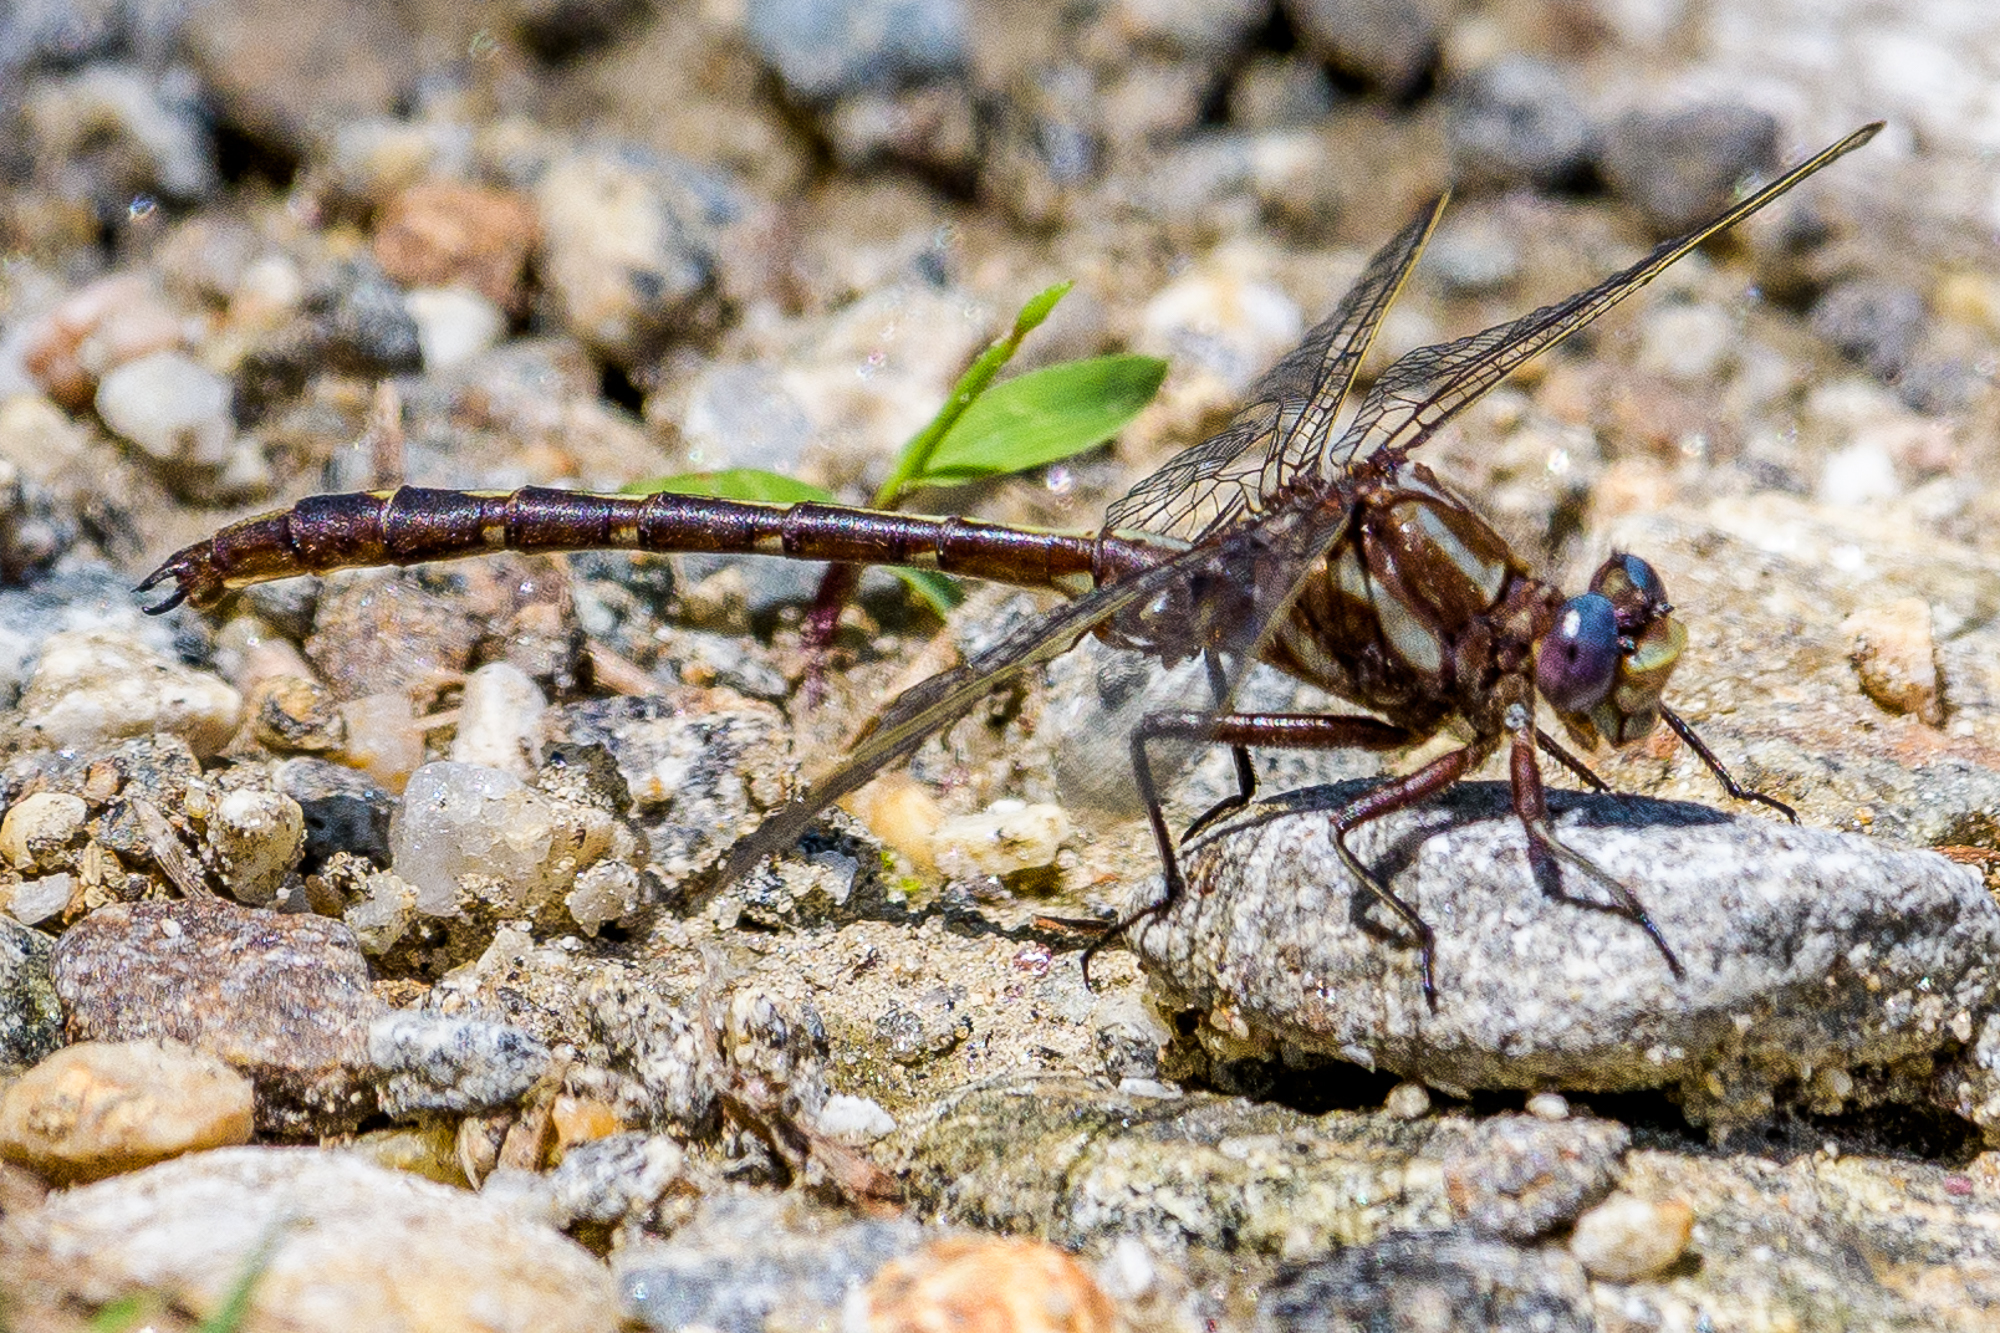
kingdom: Animalia
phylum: Arthropoda
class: Insecta
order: Odonata
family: Gomphidae
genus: Phanogomphus
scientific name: Phanogomphus lividus
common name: Ashy clubtail
